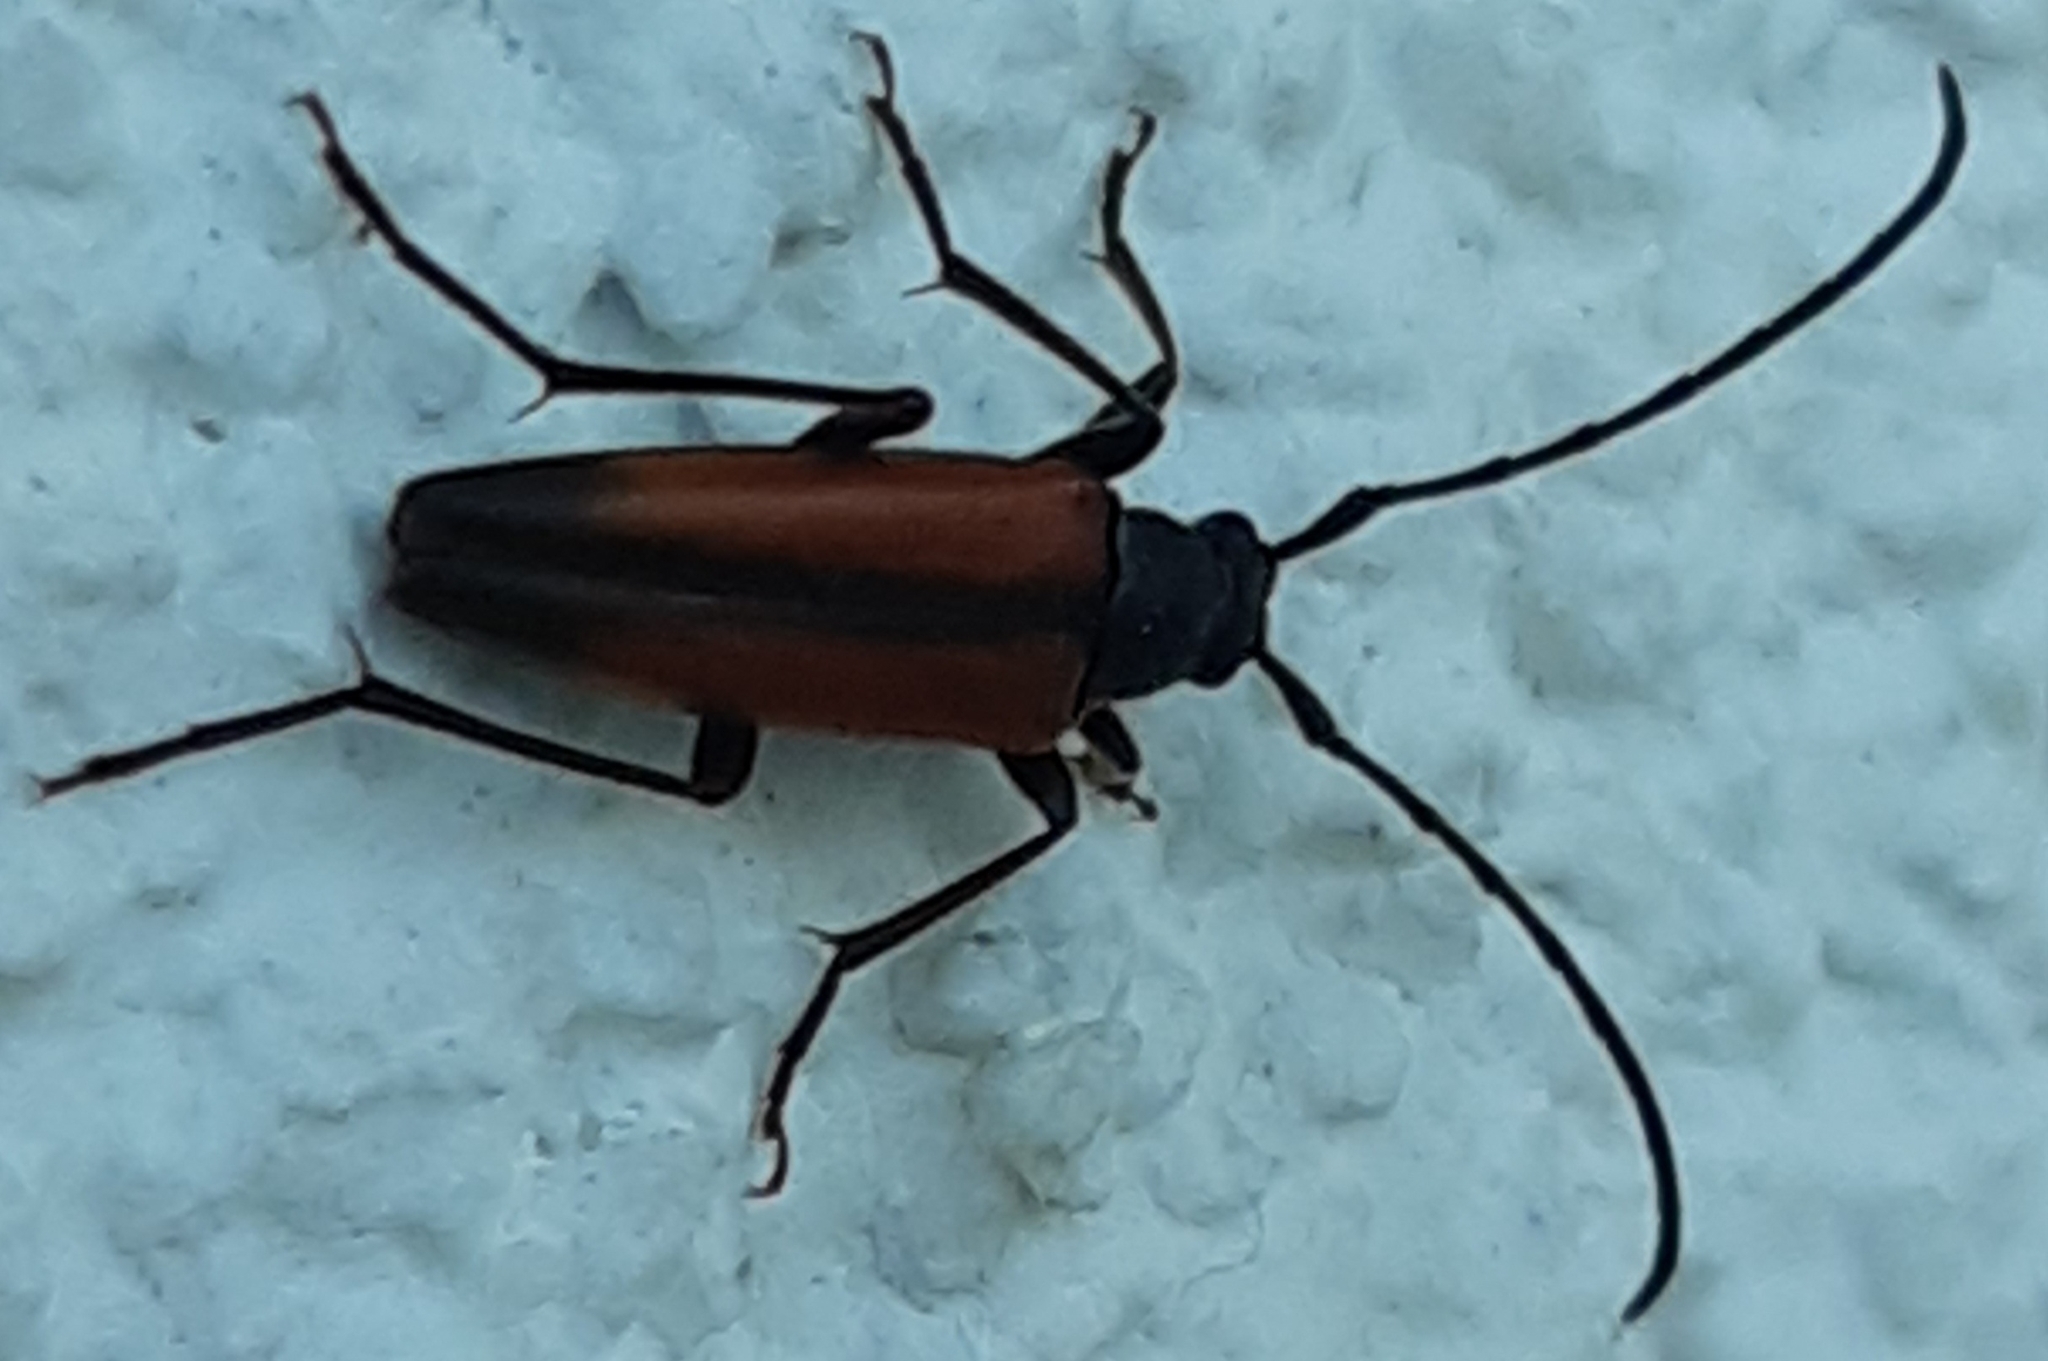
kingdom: Animalia
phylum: Arthropoda
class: Insecta
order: Coleoptera
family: Cerambycidae
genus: Stenurella
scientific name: Stenurella melanura
